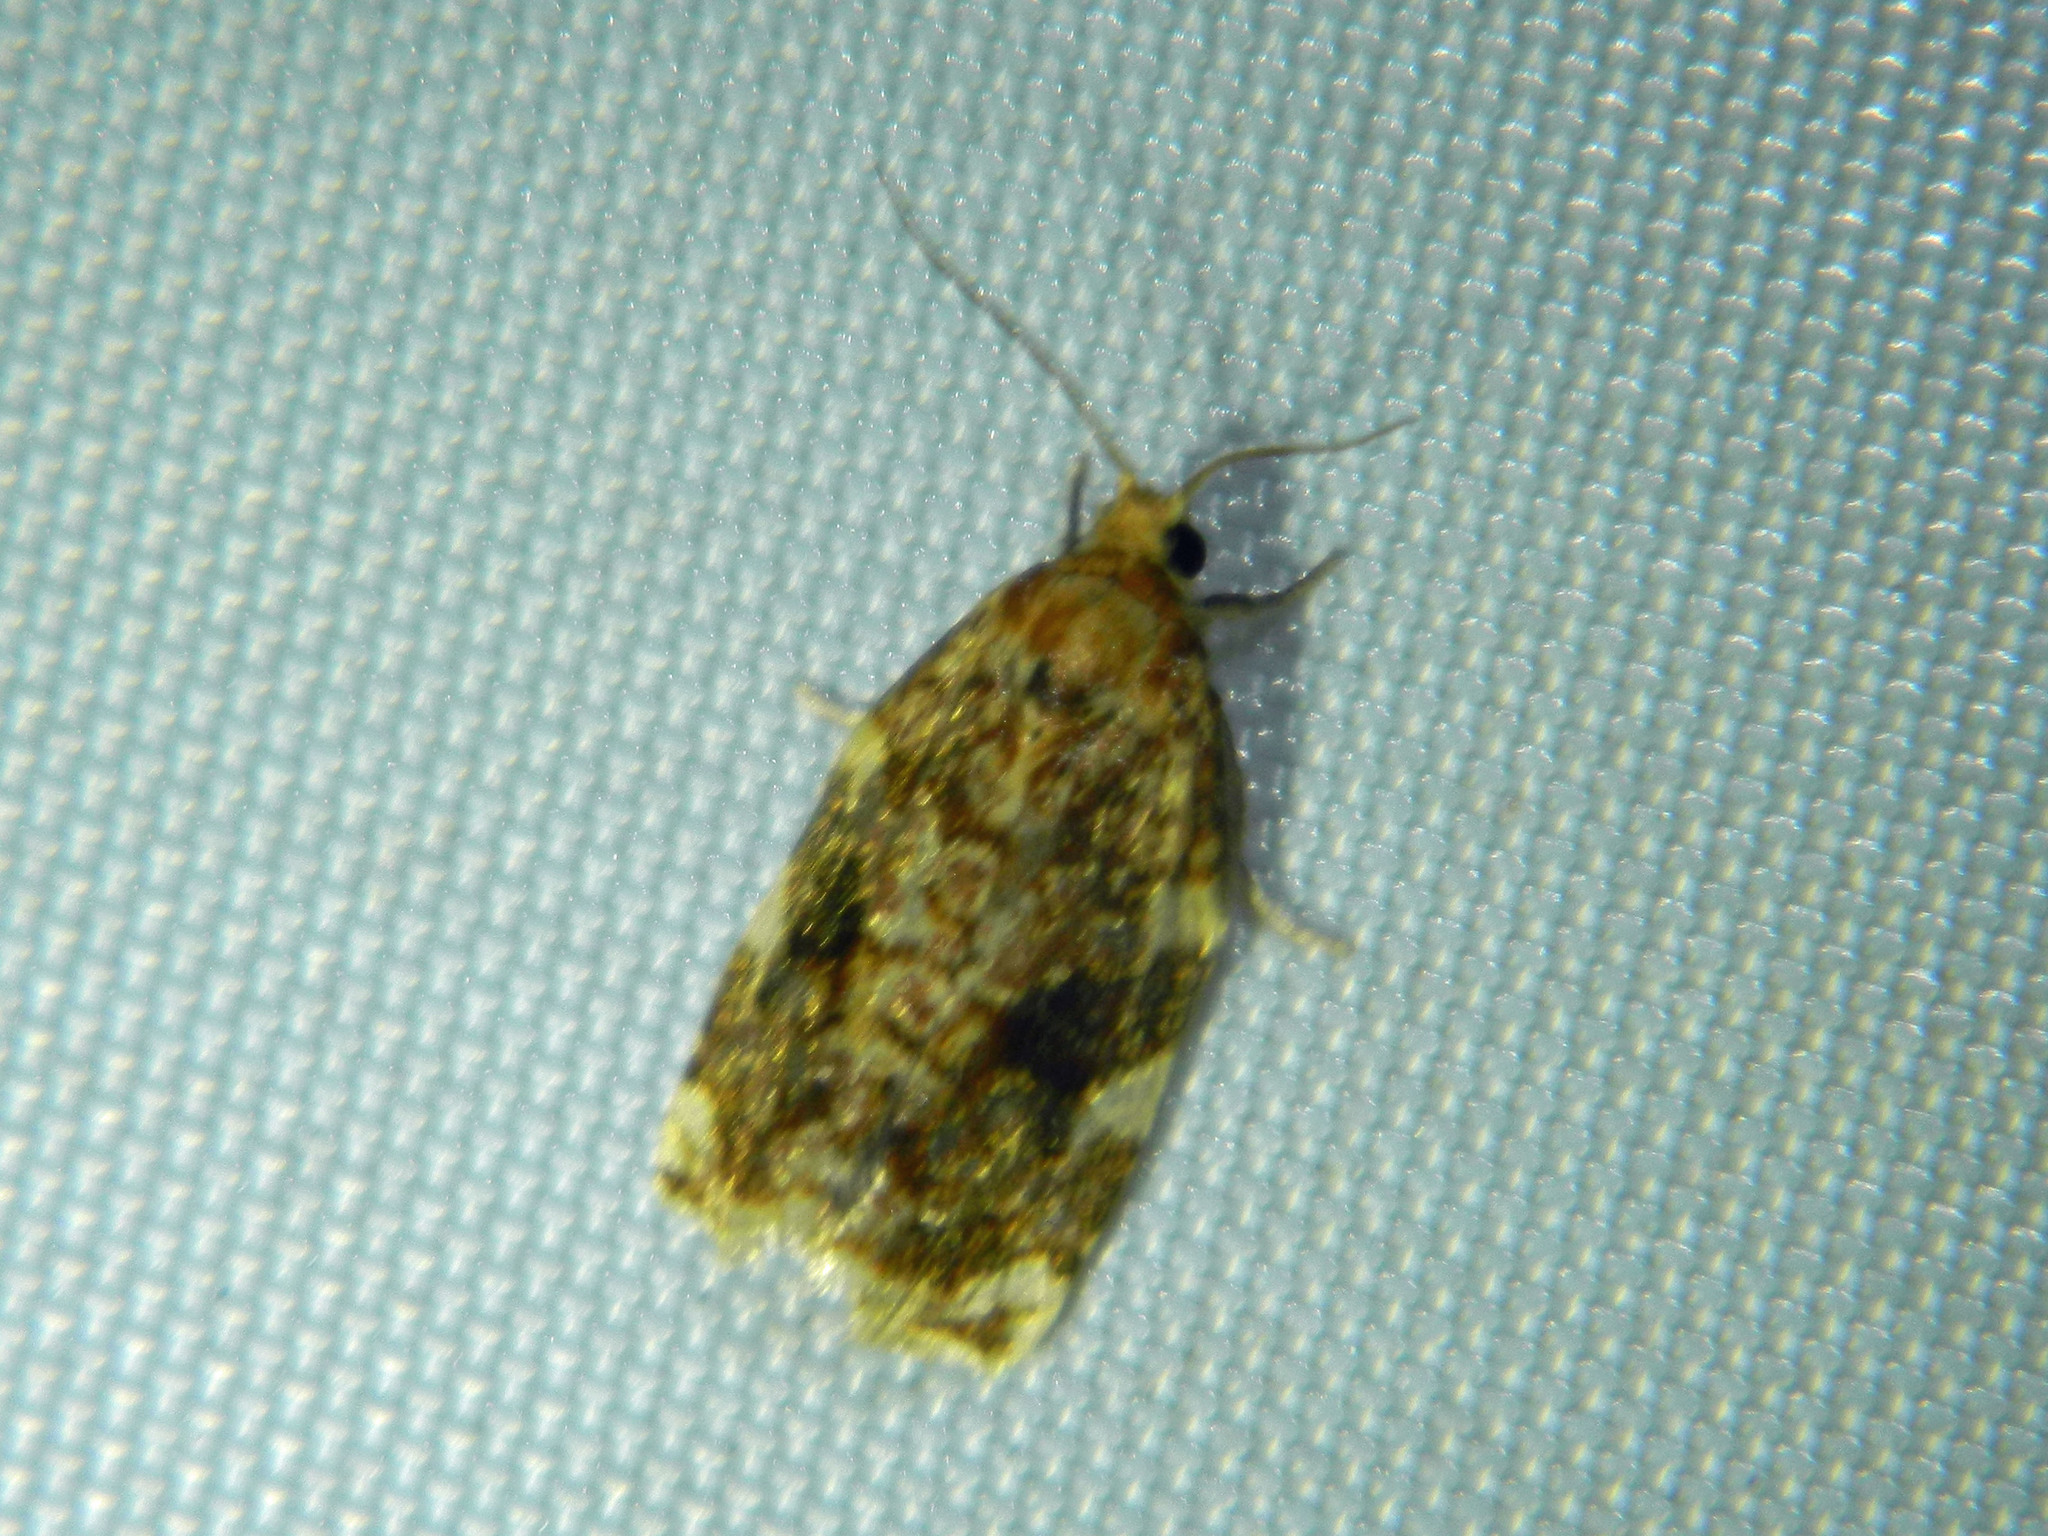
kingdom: Animalia
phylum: Arthropoda
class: Insecta
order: Lepidoptera
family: Tortricidae
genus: Archips
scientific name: Archips argyrospila
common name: Fruit-tree leafroller moth
